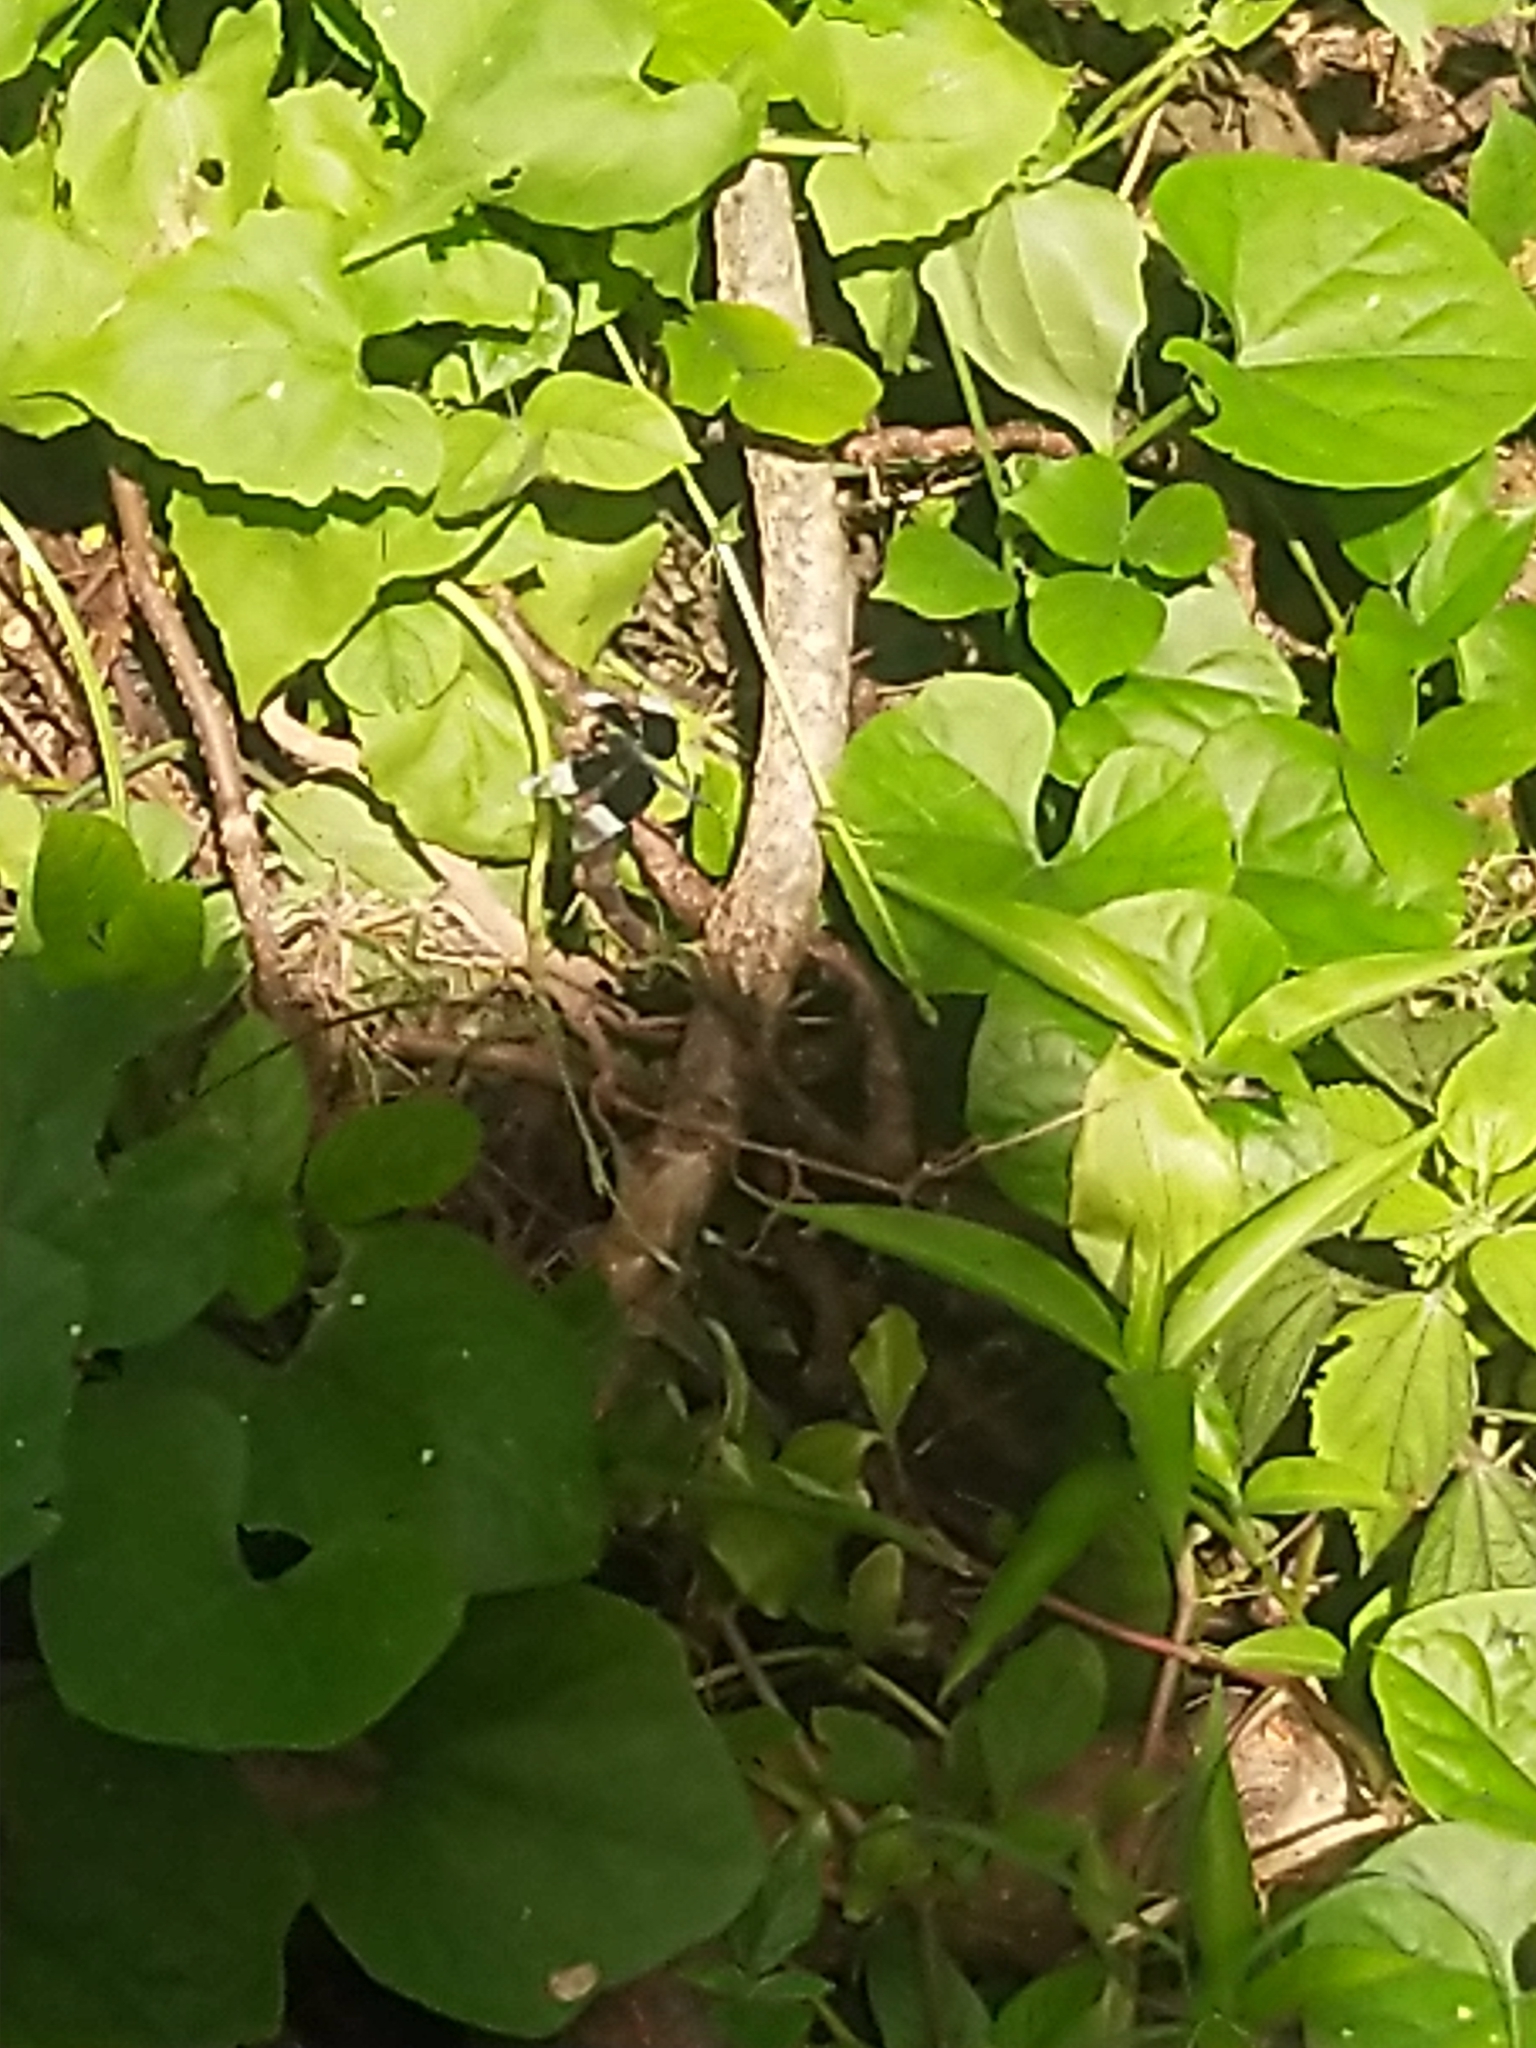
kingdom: Animalia
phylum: Arthropoda
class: Insecta
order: Odonata
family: Libellulidae
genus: Neurothemis
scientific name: Neurothemis tullia
